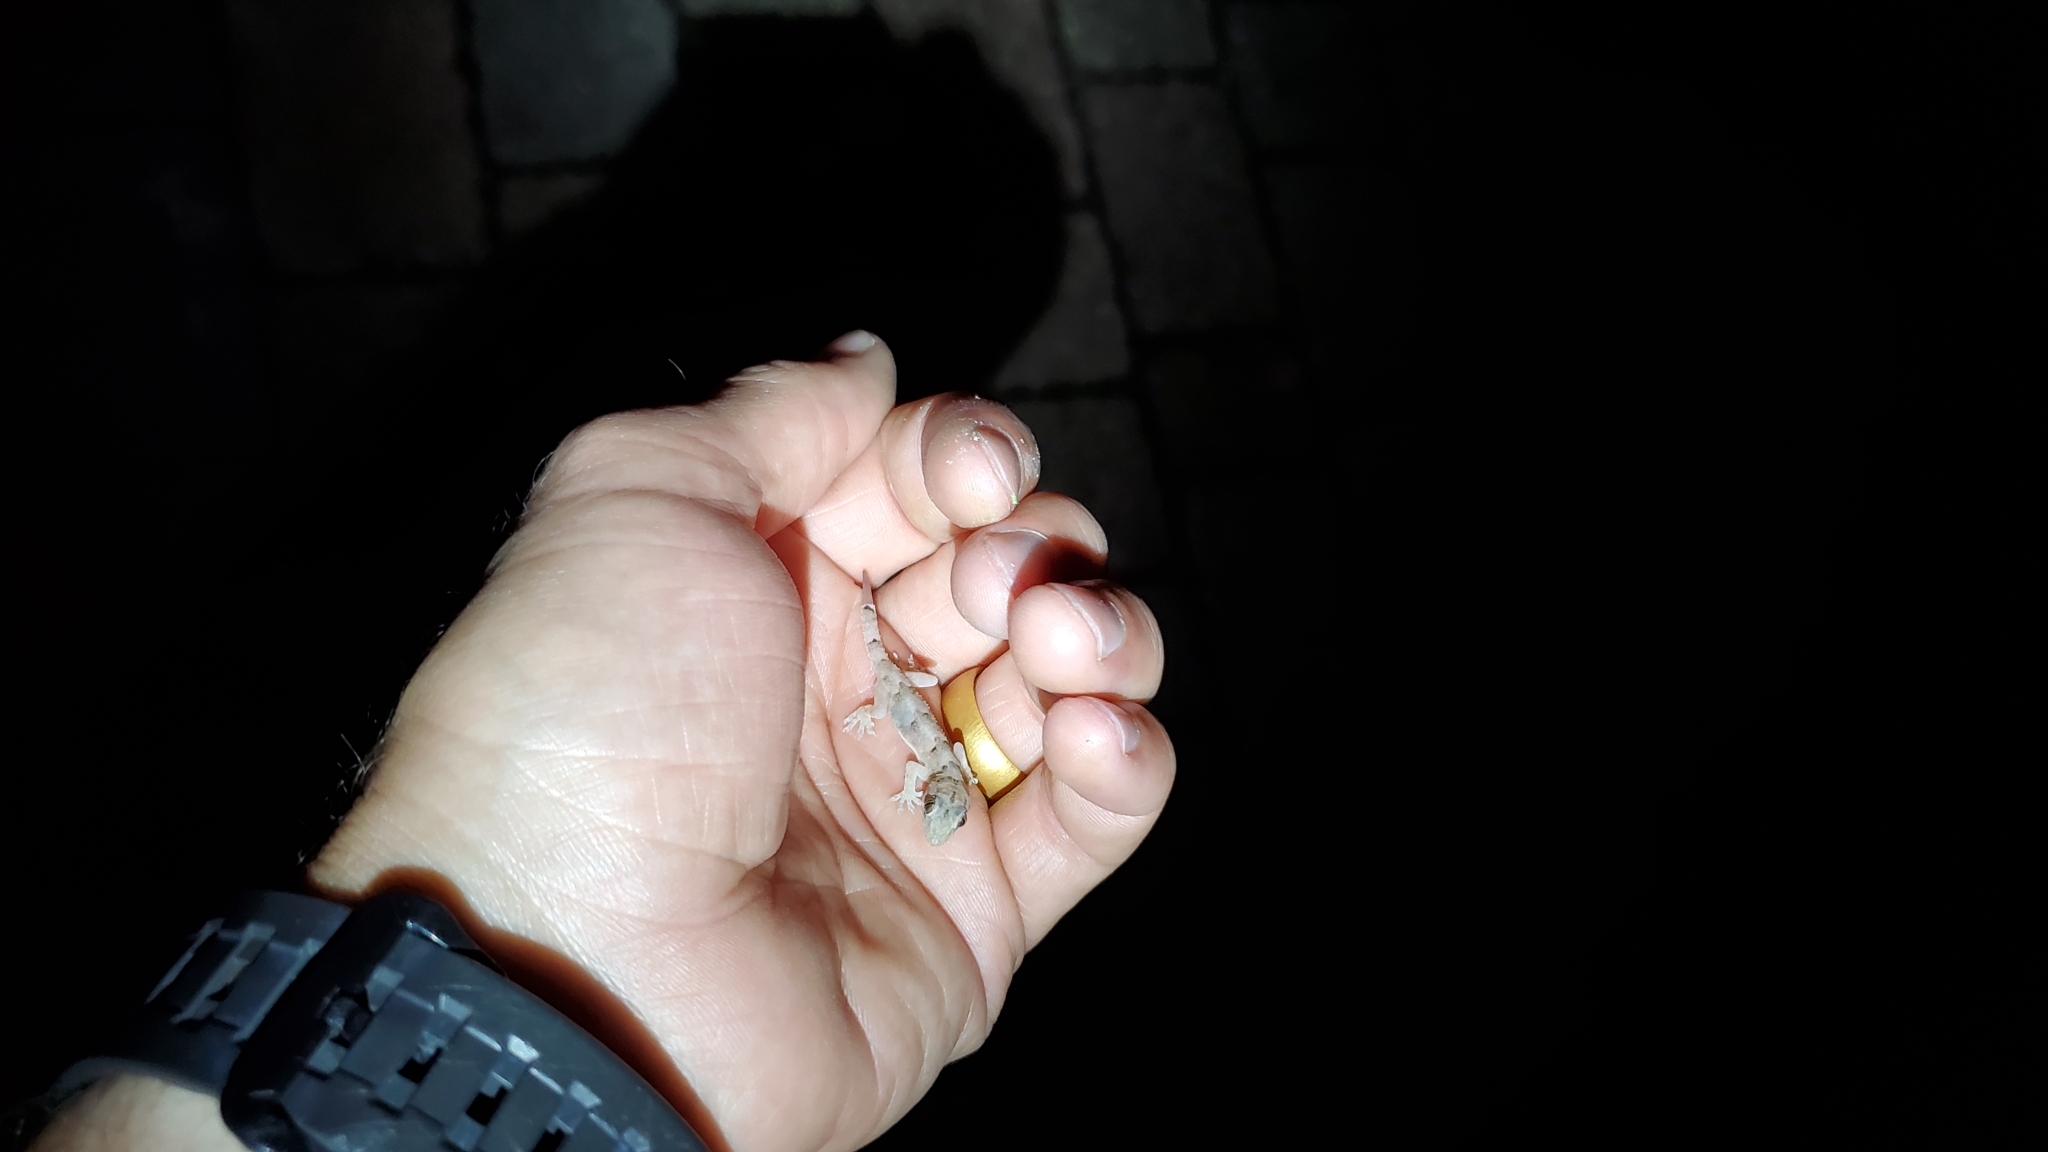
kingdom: Animalia
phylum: Chordata
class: Squamata
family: Gekkonidae
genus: Hemidactylus
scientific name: Hemidactylus mabouia
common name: House gecko
